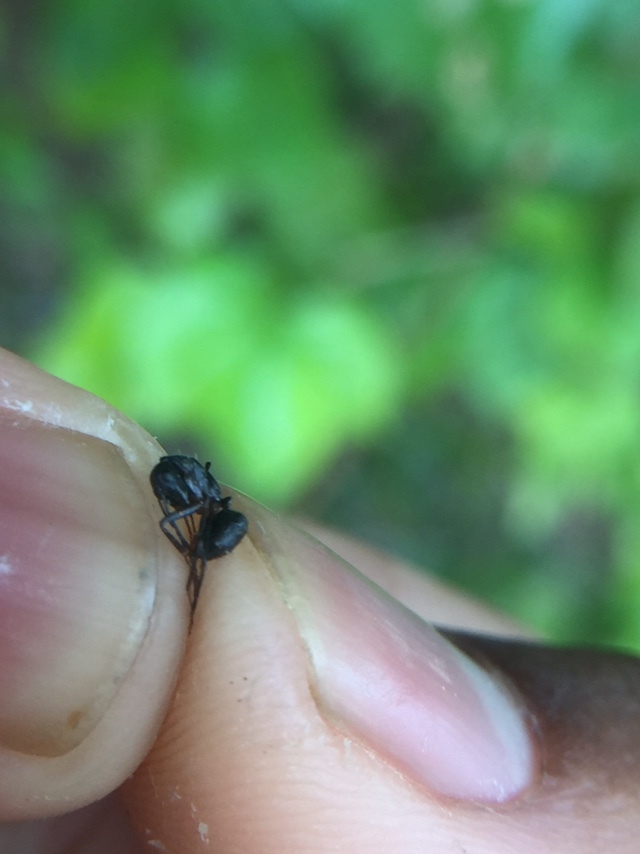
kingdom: Animalia
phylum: Arthropoda
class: Insecta
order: Hymenoptera
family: Formicidae
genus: Camponotus
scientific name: Camponotus compressus
